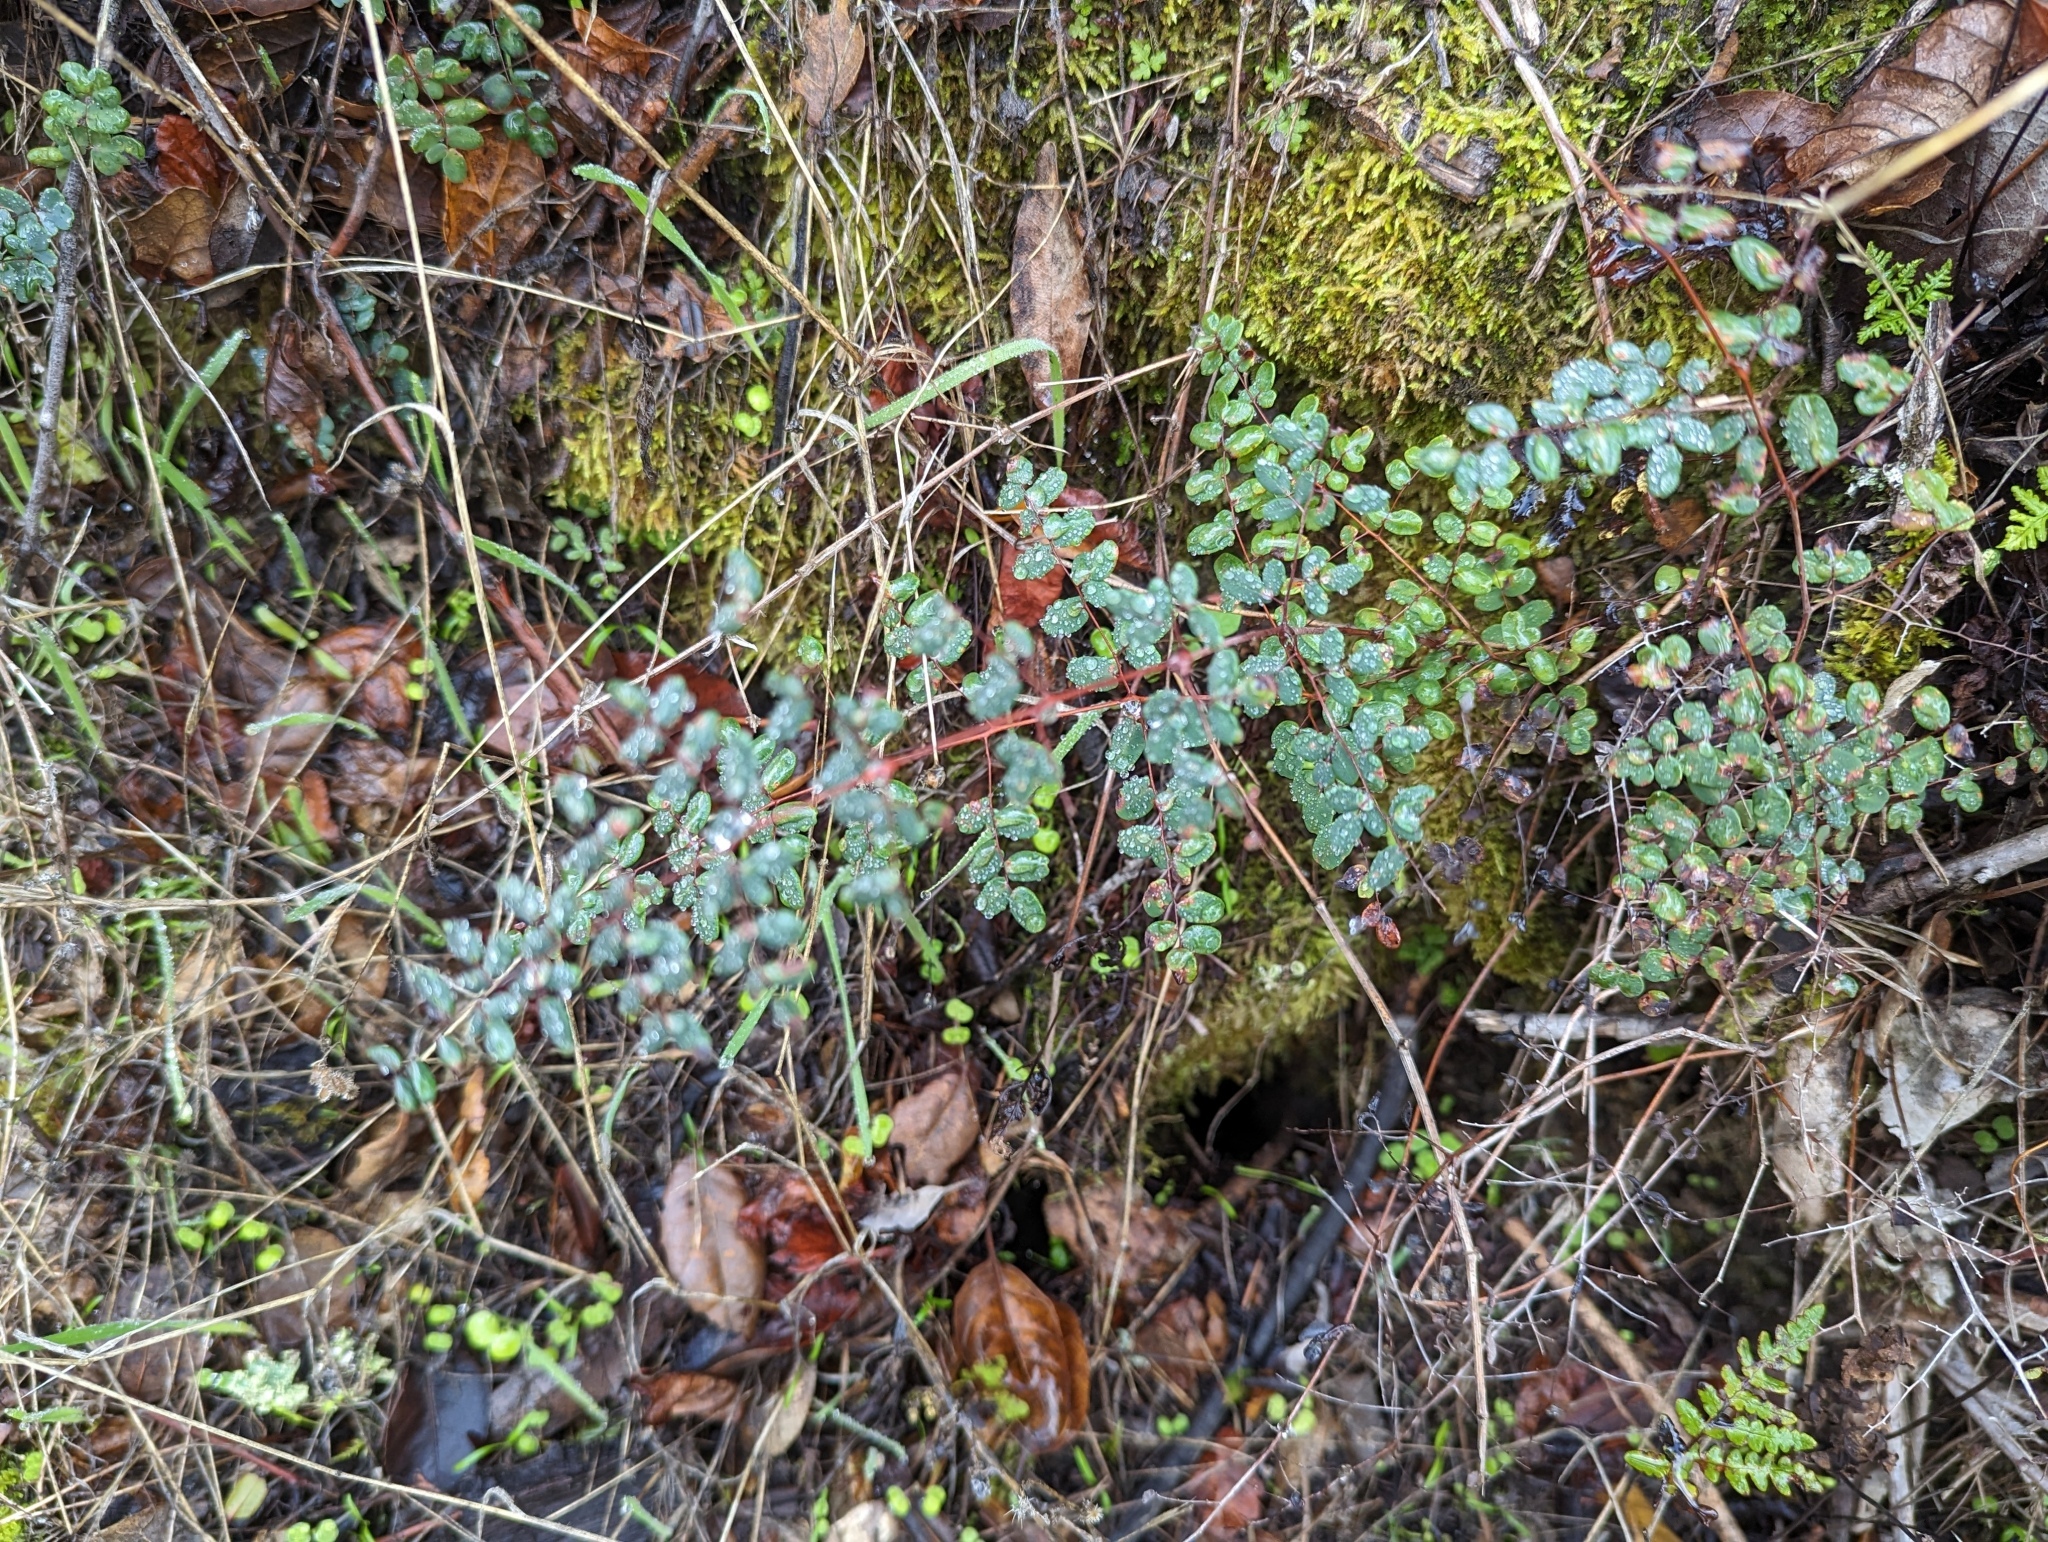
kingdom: Plantae
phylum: Tracheophyta
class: Polypodiopsida
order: Polypodiales
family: Pteridaceae
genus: Pellaea
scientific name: Pellaea andromedifolia
